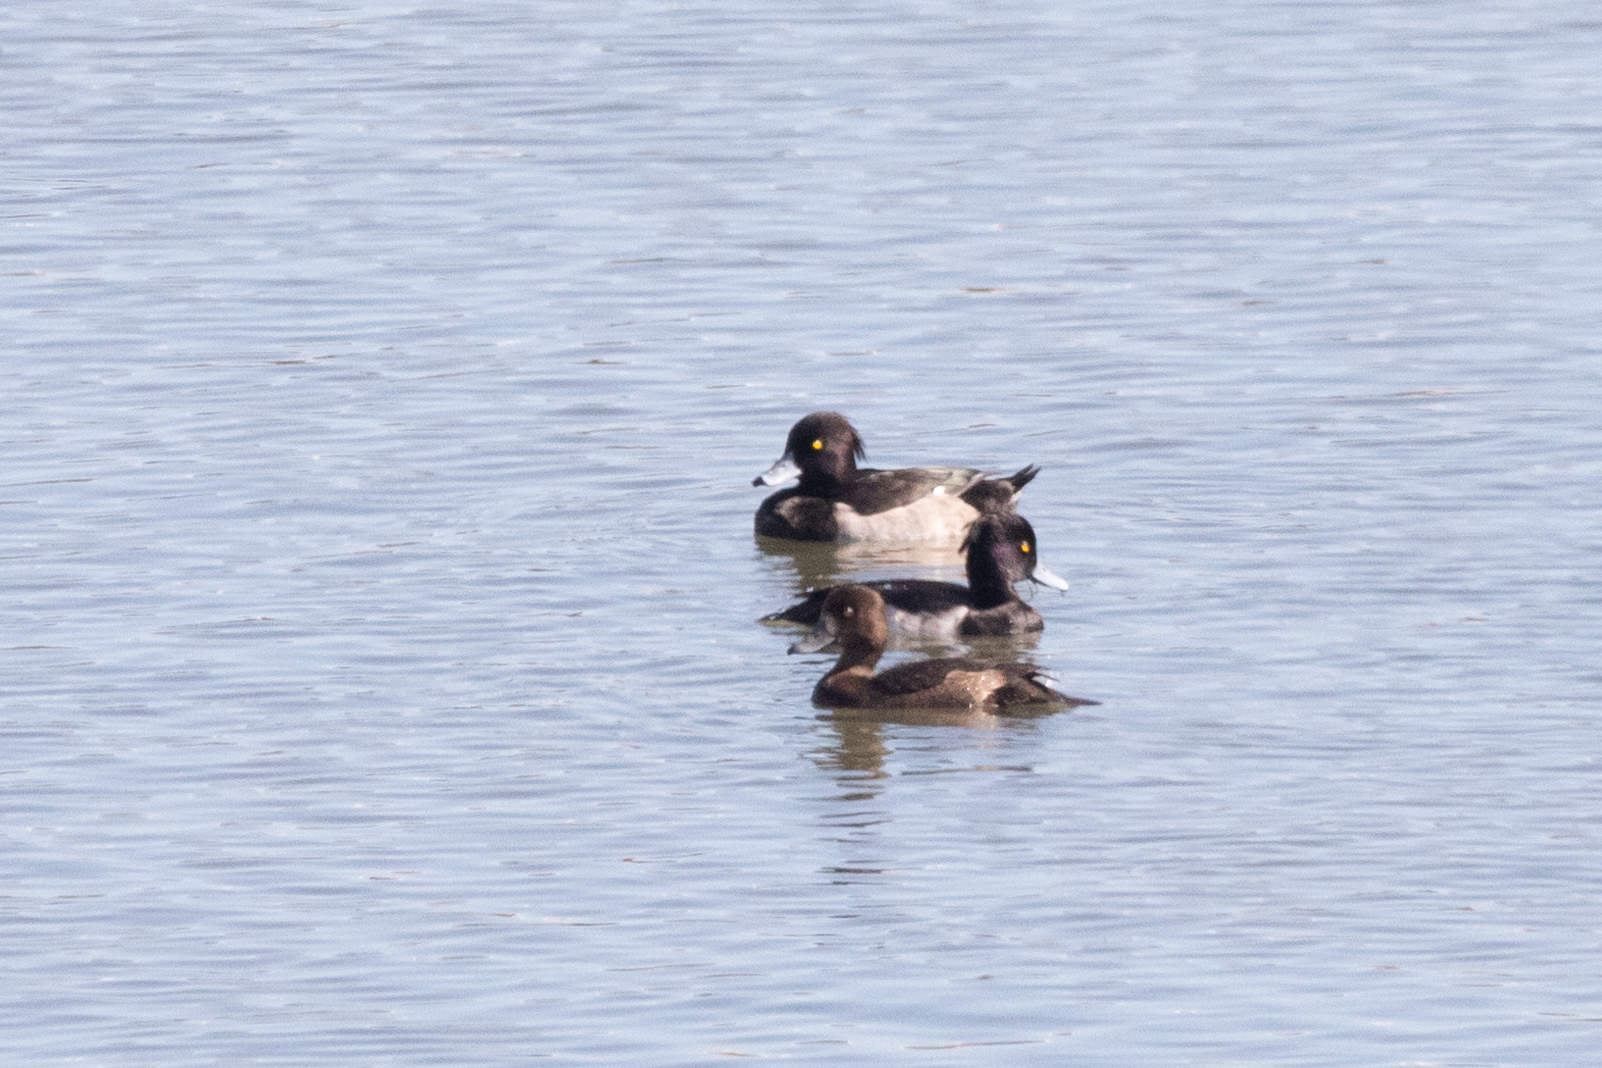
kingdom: Animalia
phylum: Chordata
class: Aves
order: Anseriformes
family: Anatidae
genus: Aythya
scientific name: Aythya fuligula
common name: Tufted duck
